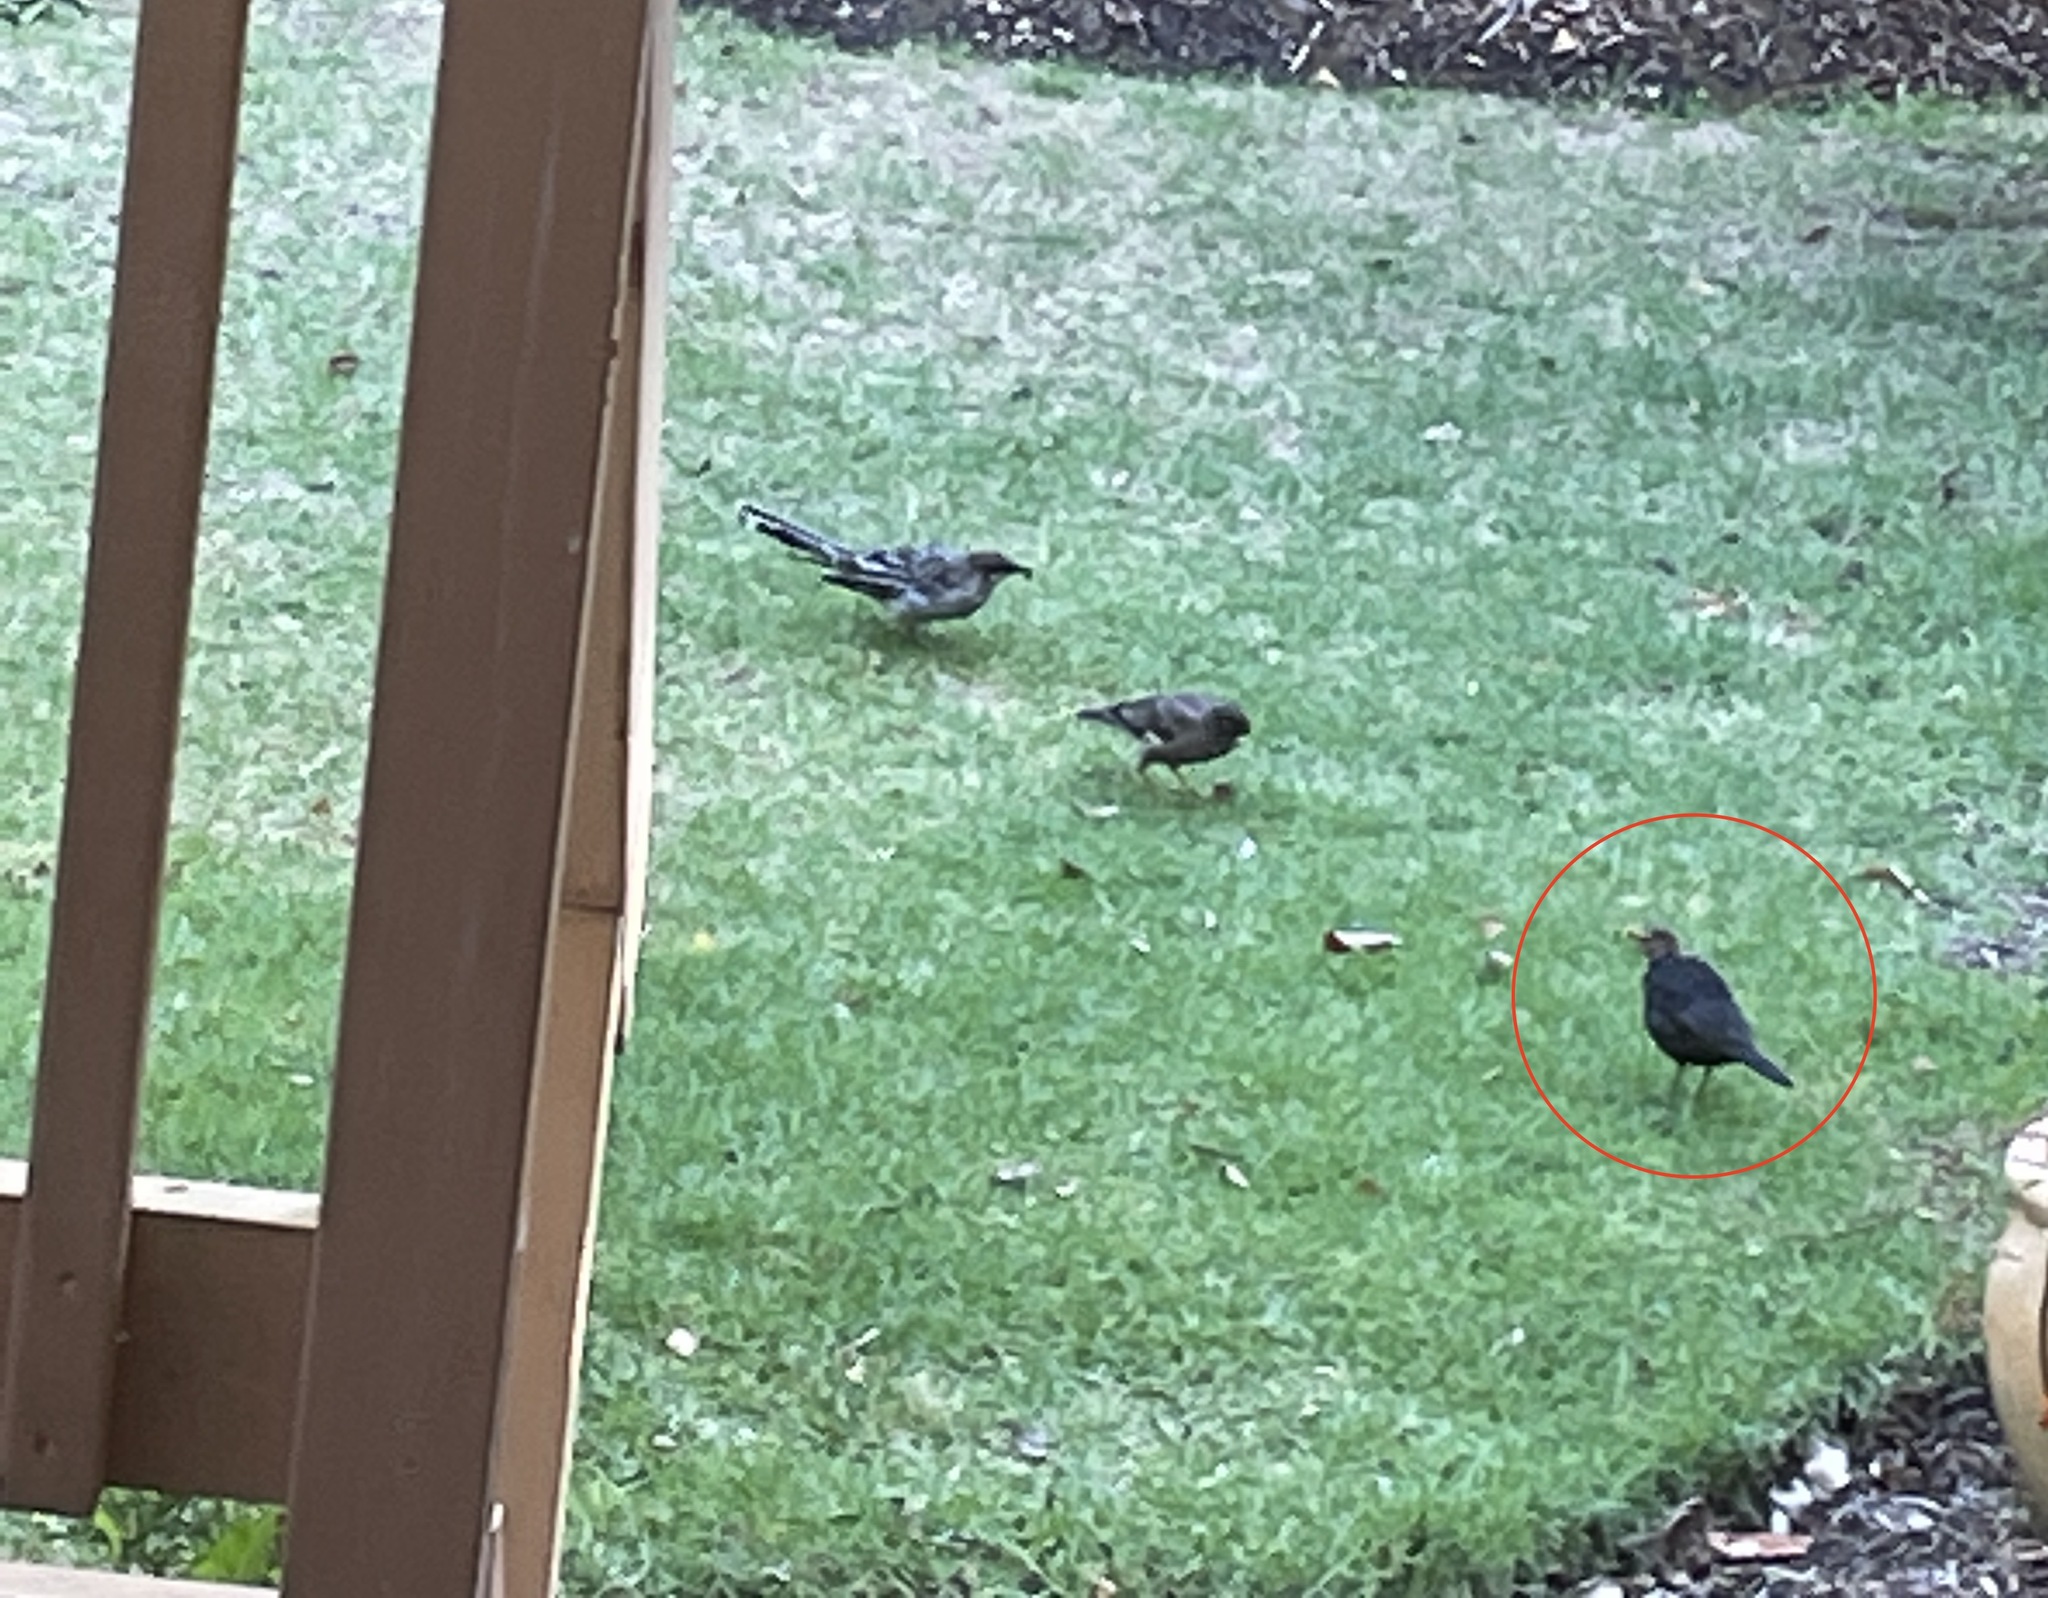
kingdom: Animalia
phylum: Chordata
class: Aves
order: Passeriformes
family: Turdidae
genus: Turdus
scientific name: Turdus merula
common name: Common blackbird
